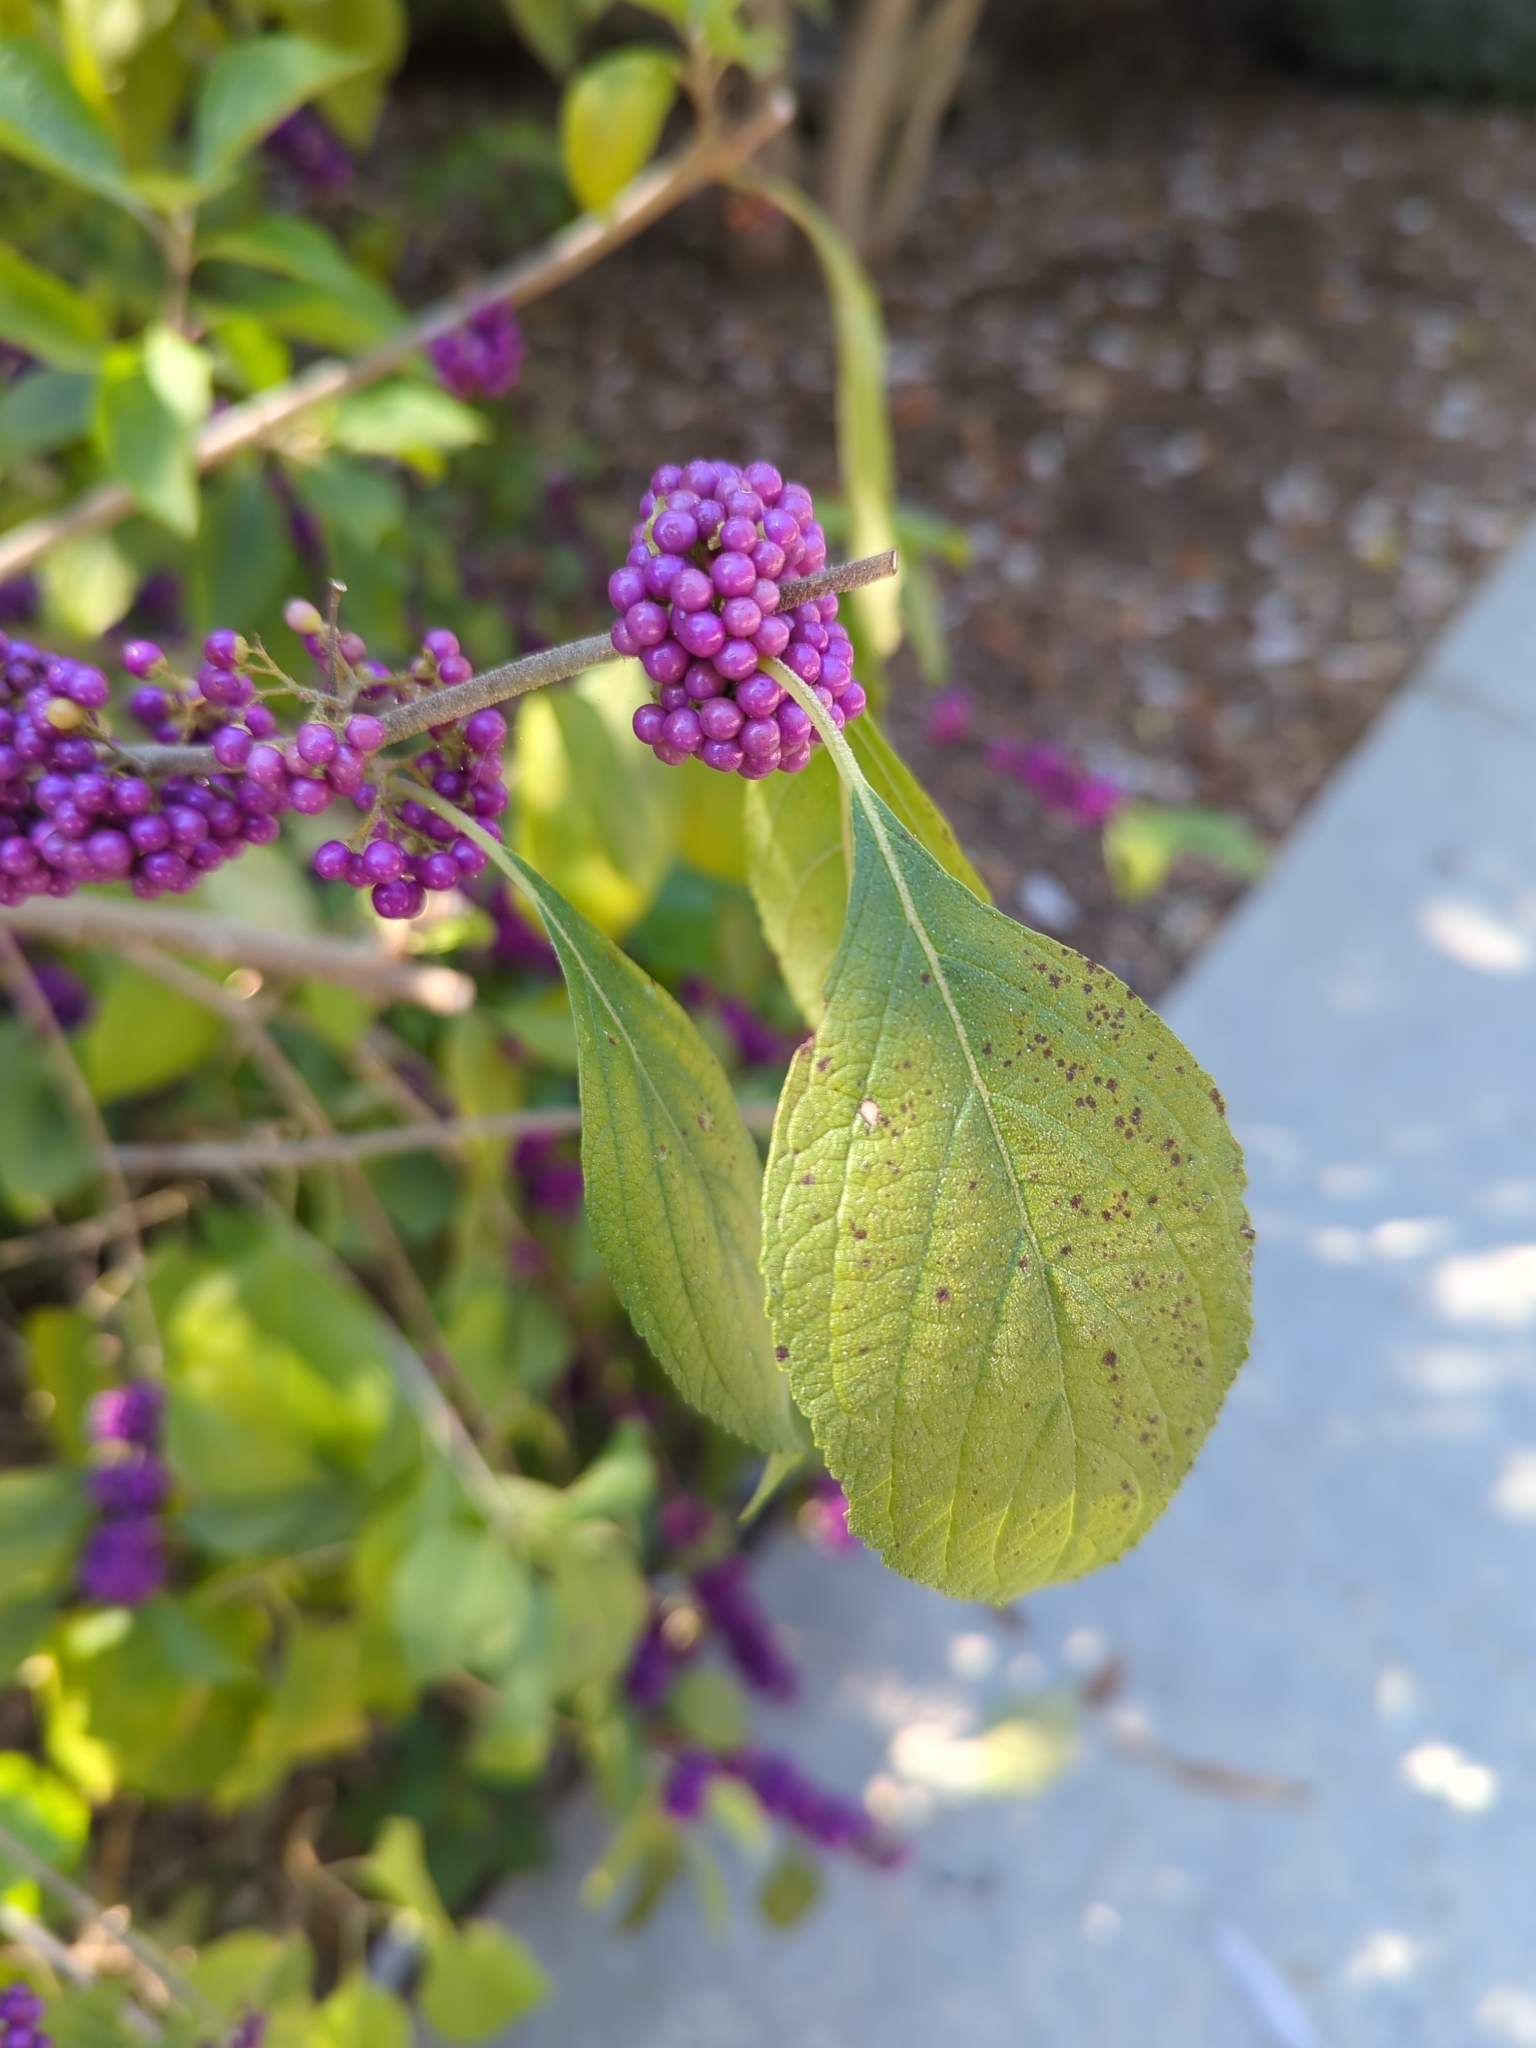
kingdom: Plantae
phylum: Tracheophyta
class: Magnoliopsida
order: Lamiales
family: Lamiaceae
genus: Callicarpa
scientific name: Callicarpa americana
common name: American beautyberry
